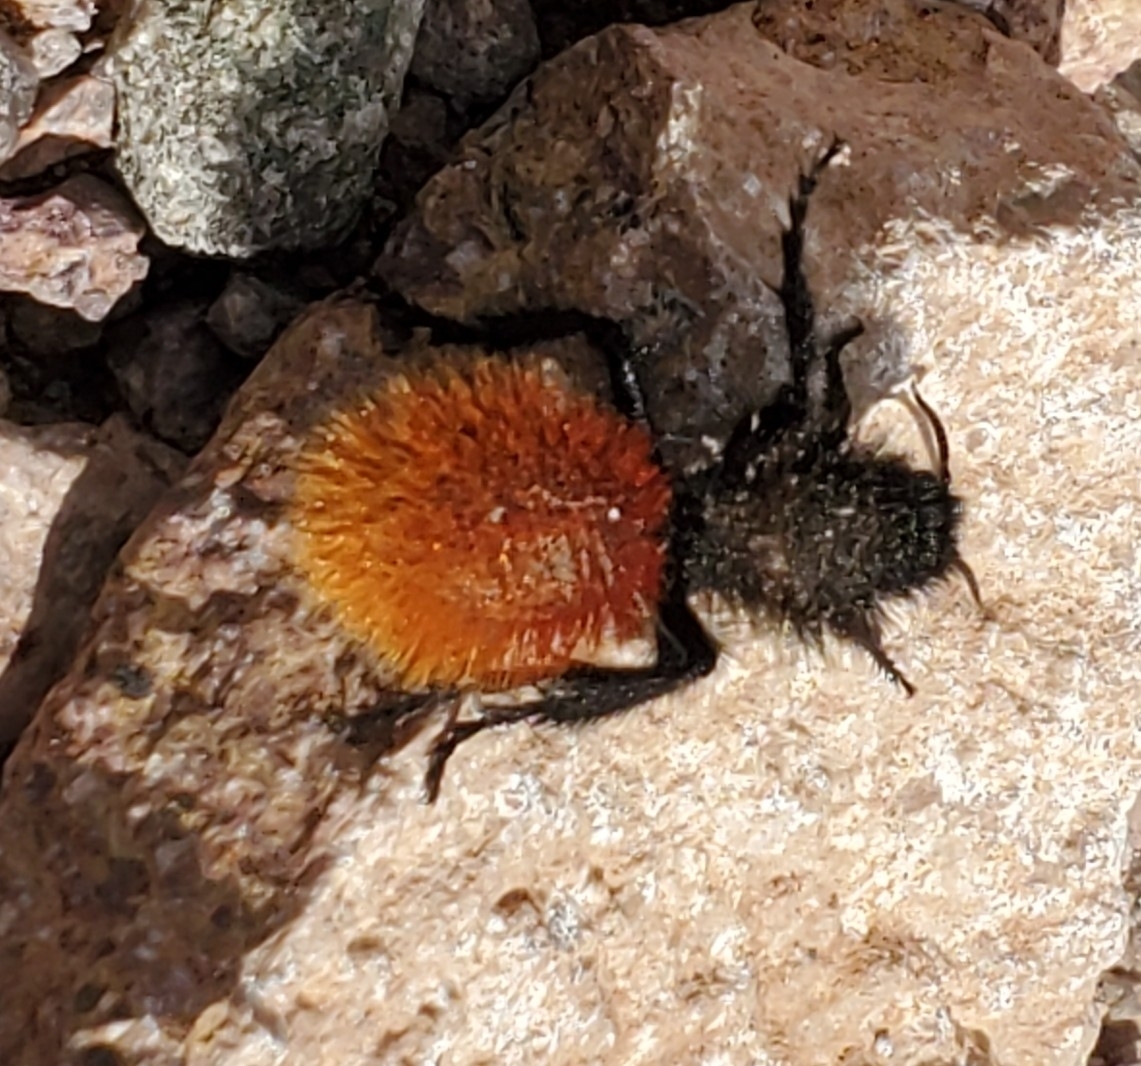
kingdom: Animalia
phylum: Arthropoda
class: Insecta
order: Hymenoptera
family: Mutillidae
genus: Dasymutilla
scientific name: Dasymutilla magnifica
